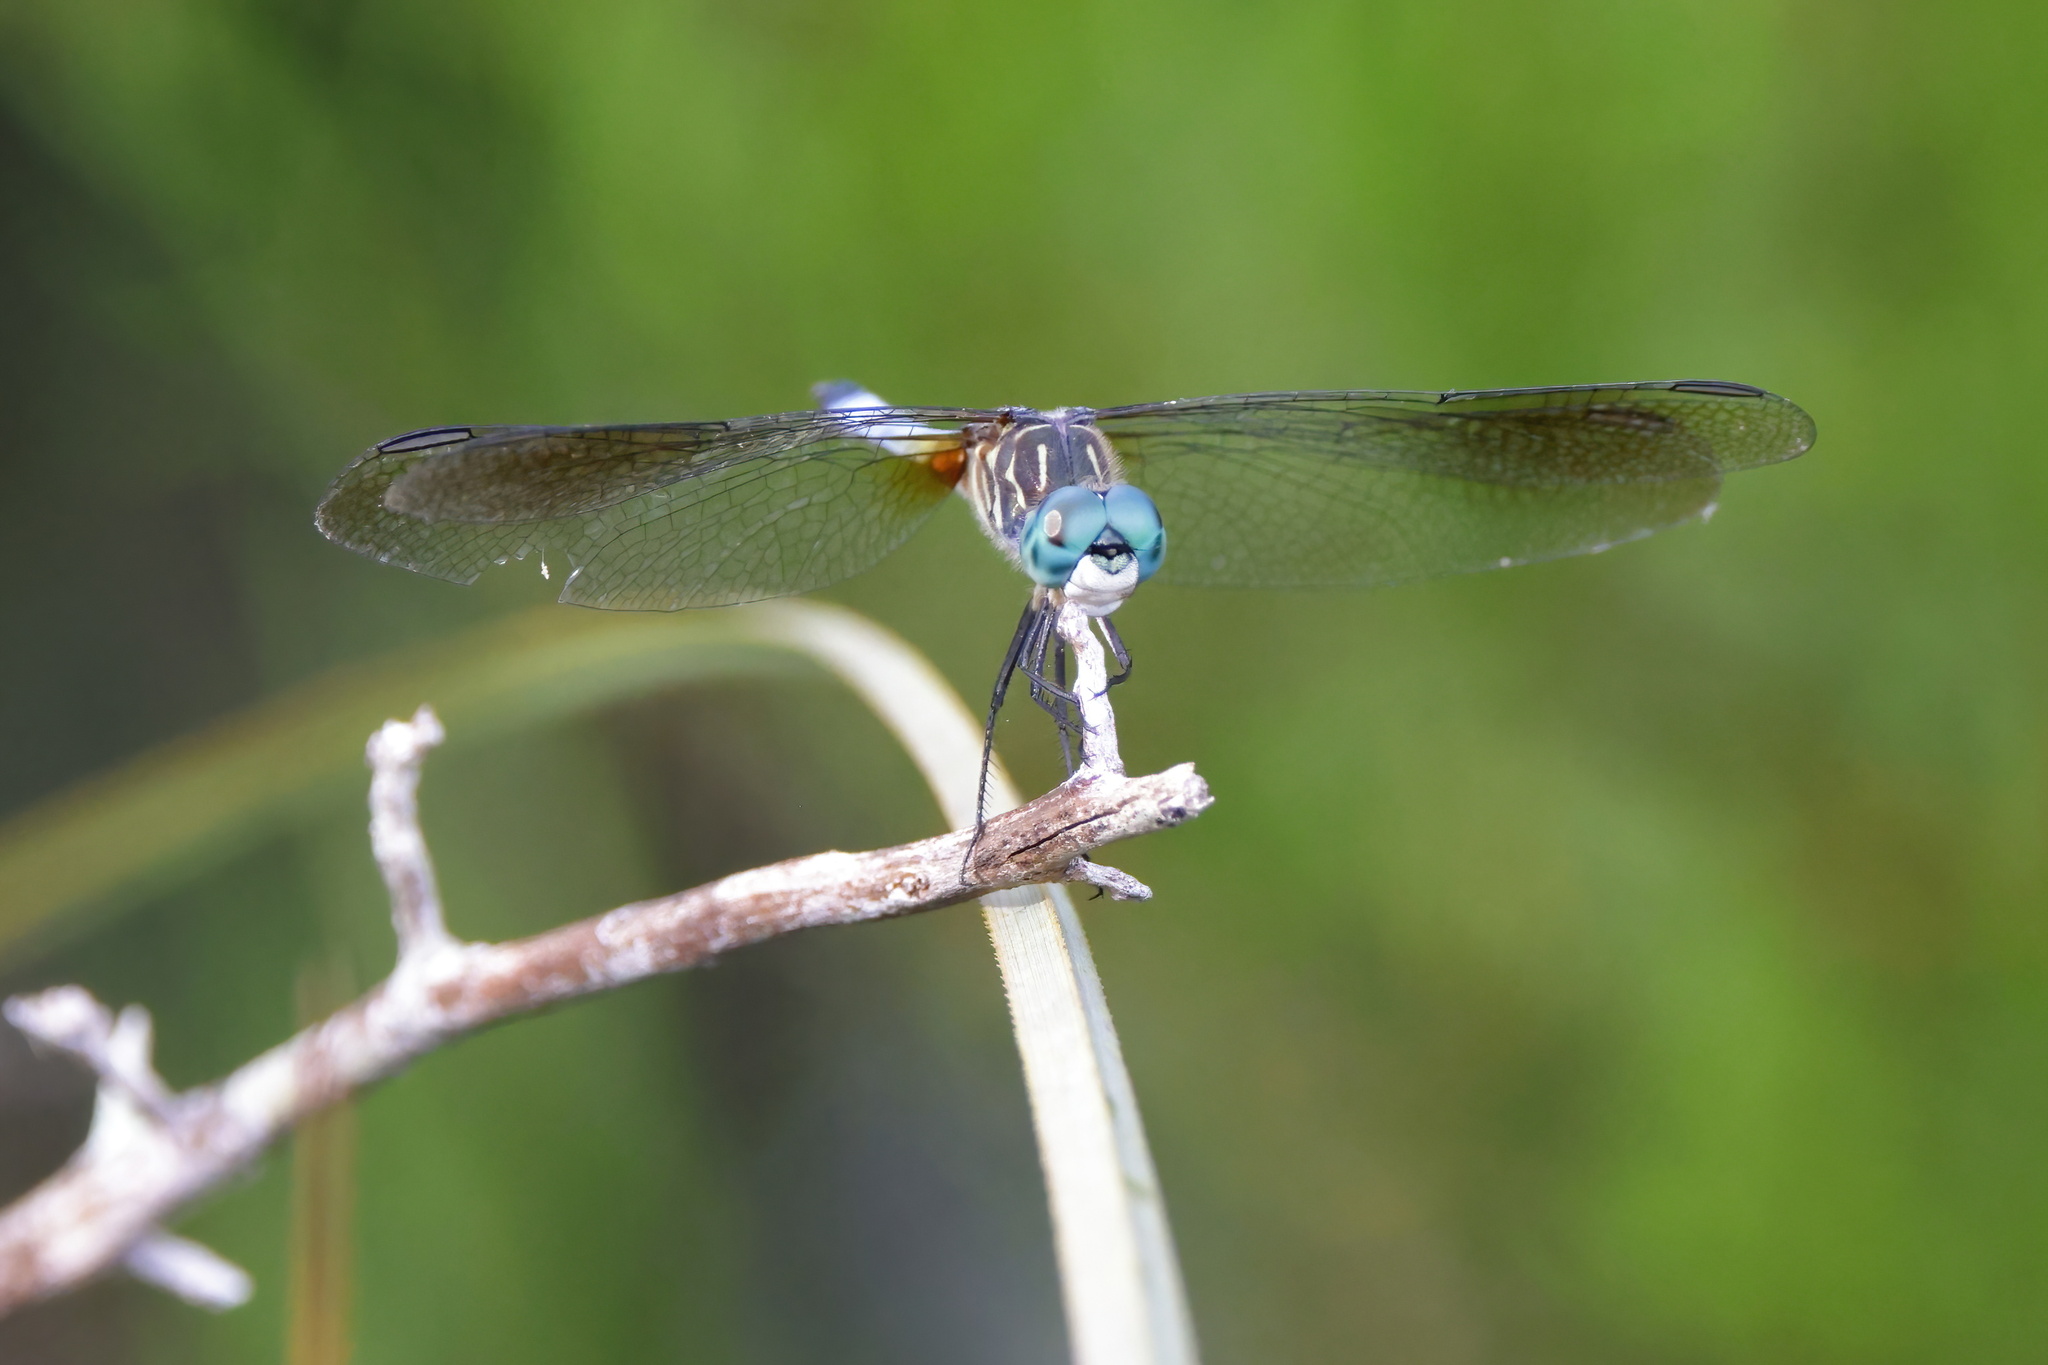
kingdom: Animalia
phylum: Arthropoda
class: Insecta
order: Odonata
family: Libellulidae
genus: Pachydiplax
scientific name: Pachydiplax longipennis
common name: Blue dasher
